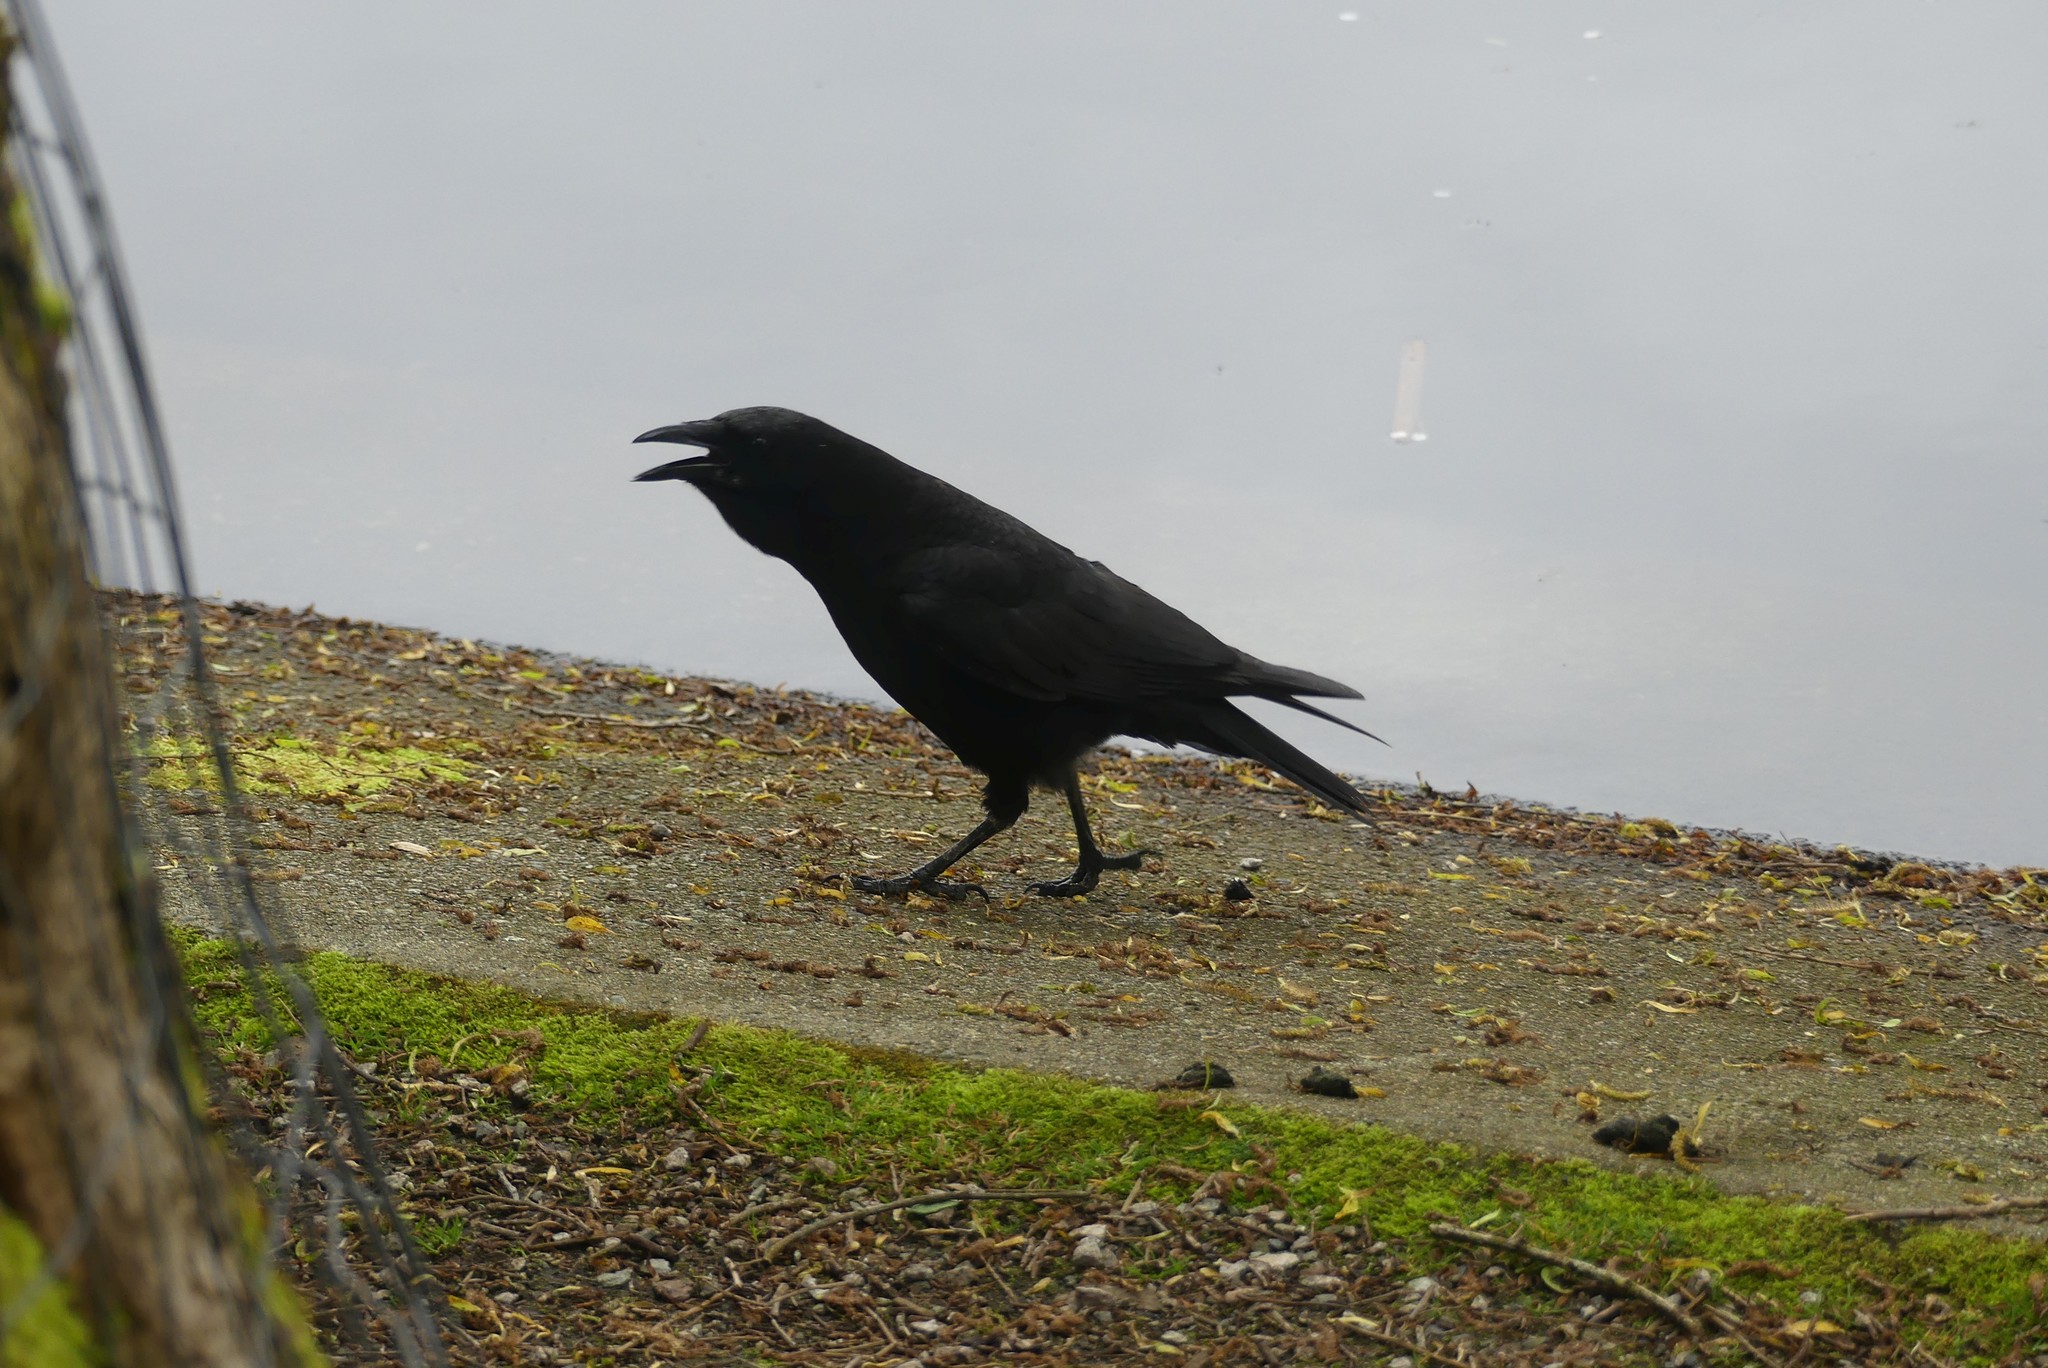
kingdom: Animalia
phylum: Chordata
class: Aves
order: Passeriformes
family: Corvidae
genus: Corvus
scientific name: Corvus brachyrhynchos
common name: American crow
